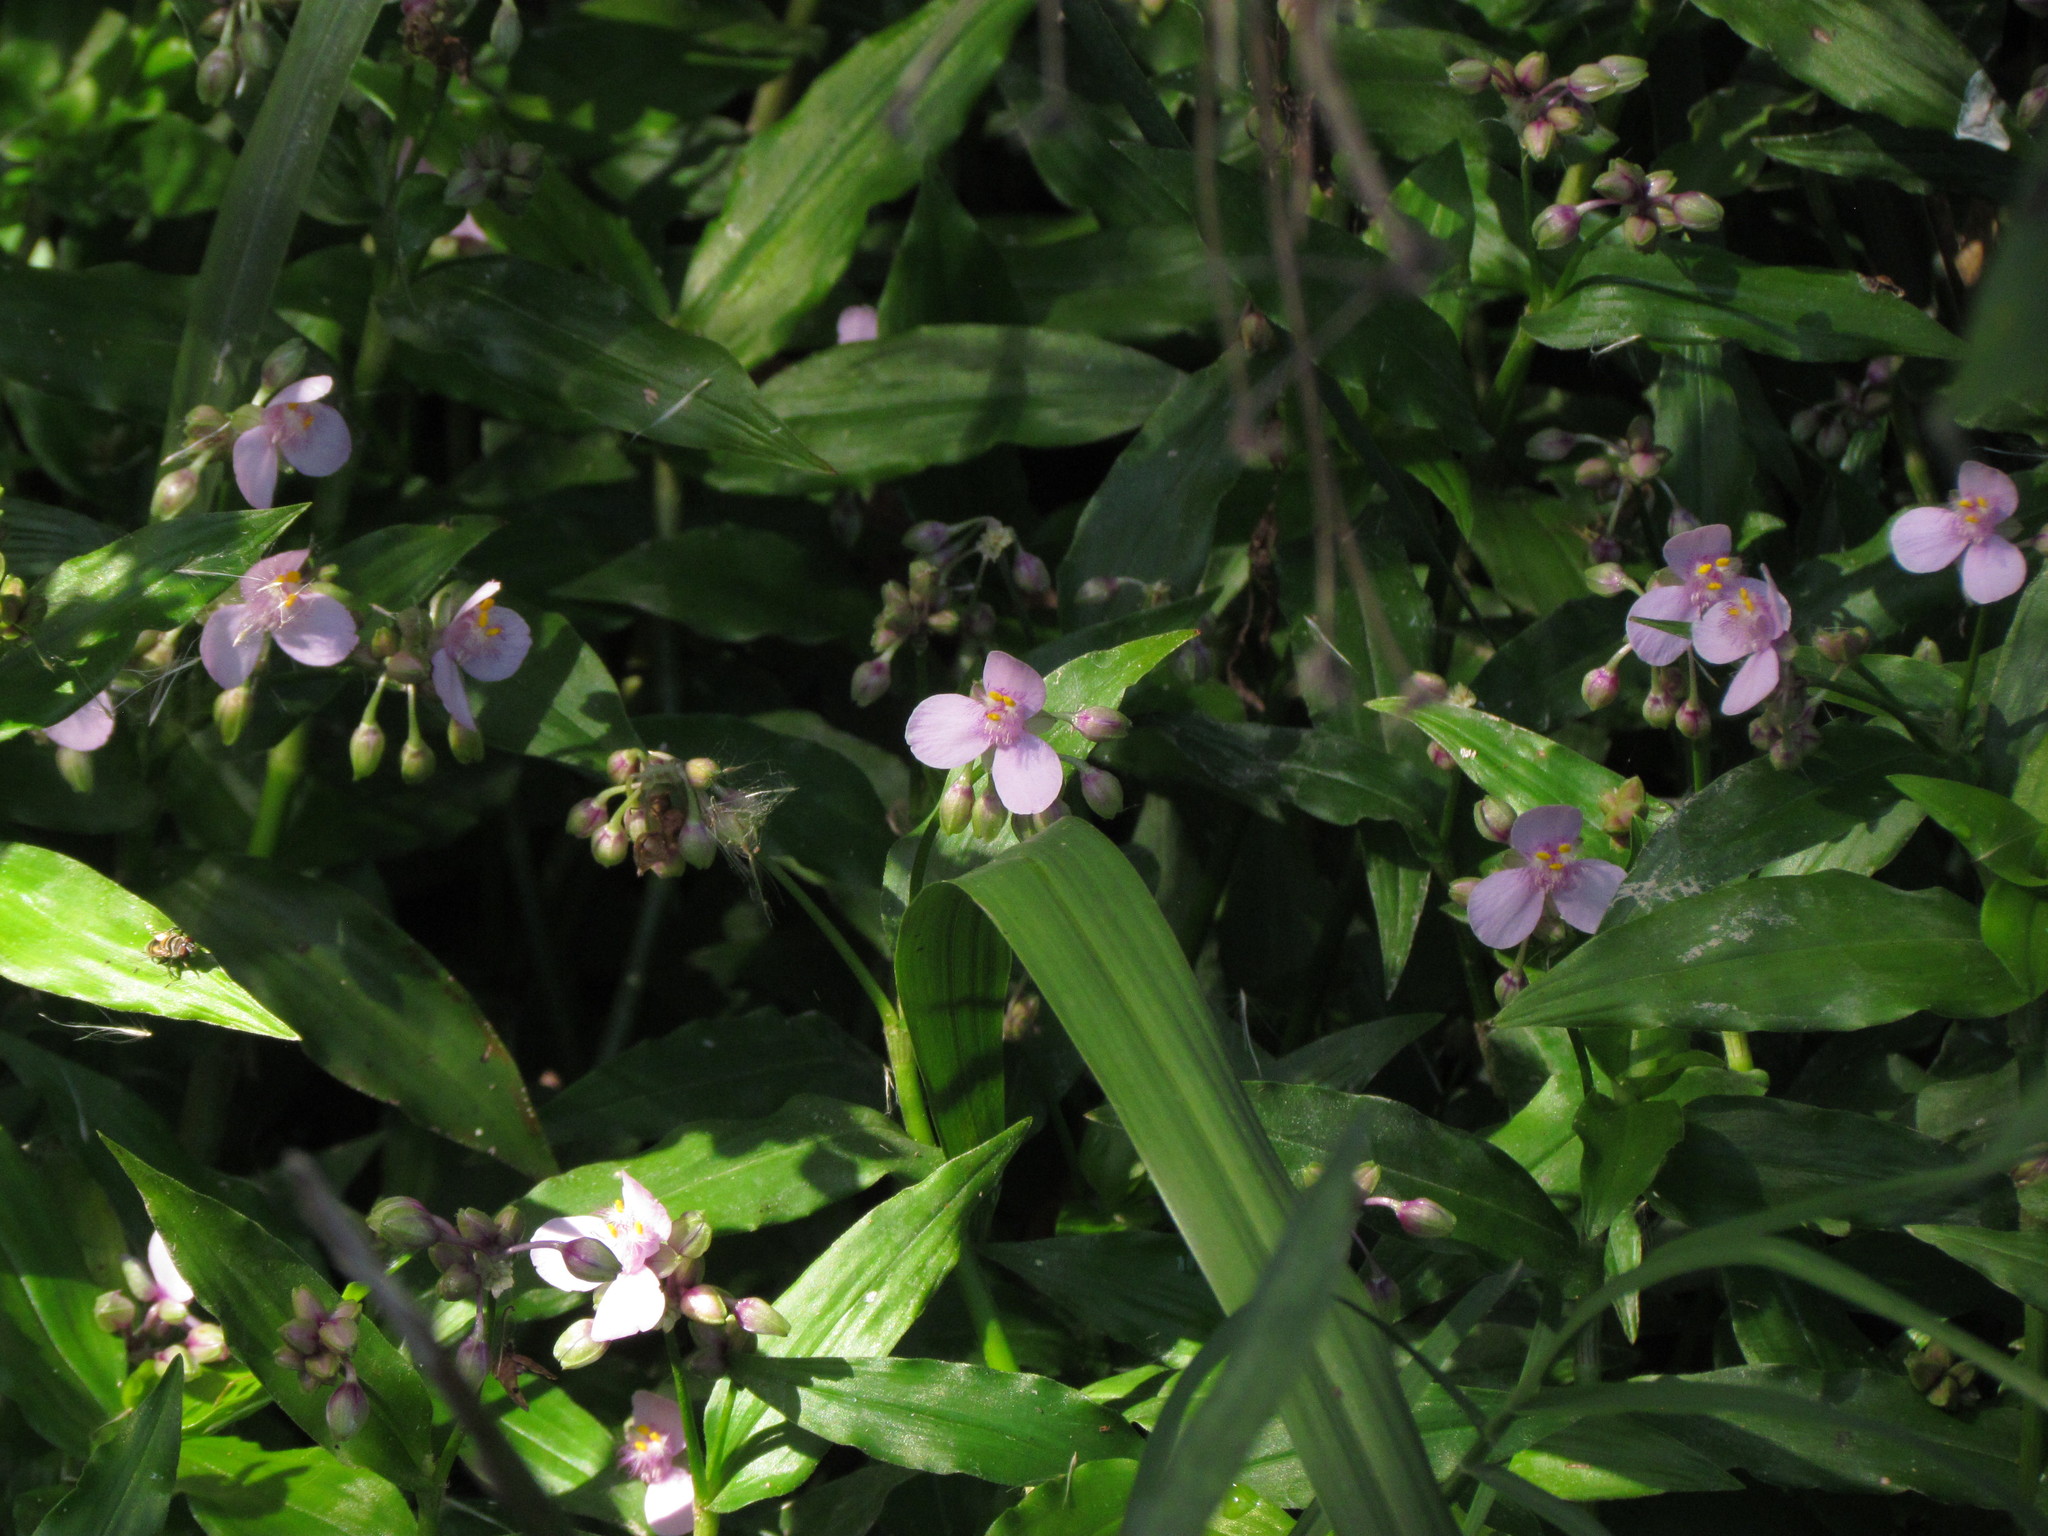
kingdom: Plantae
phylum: Tracheophyta
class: Liliopsida
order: Commelinales
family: Commelinaceae
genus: Callisia
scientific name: Callisia diuretica
